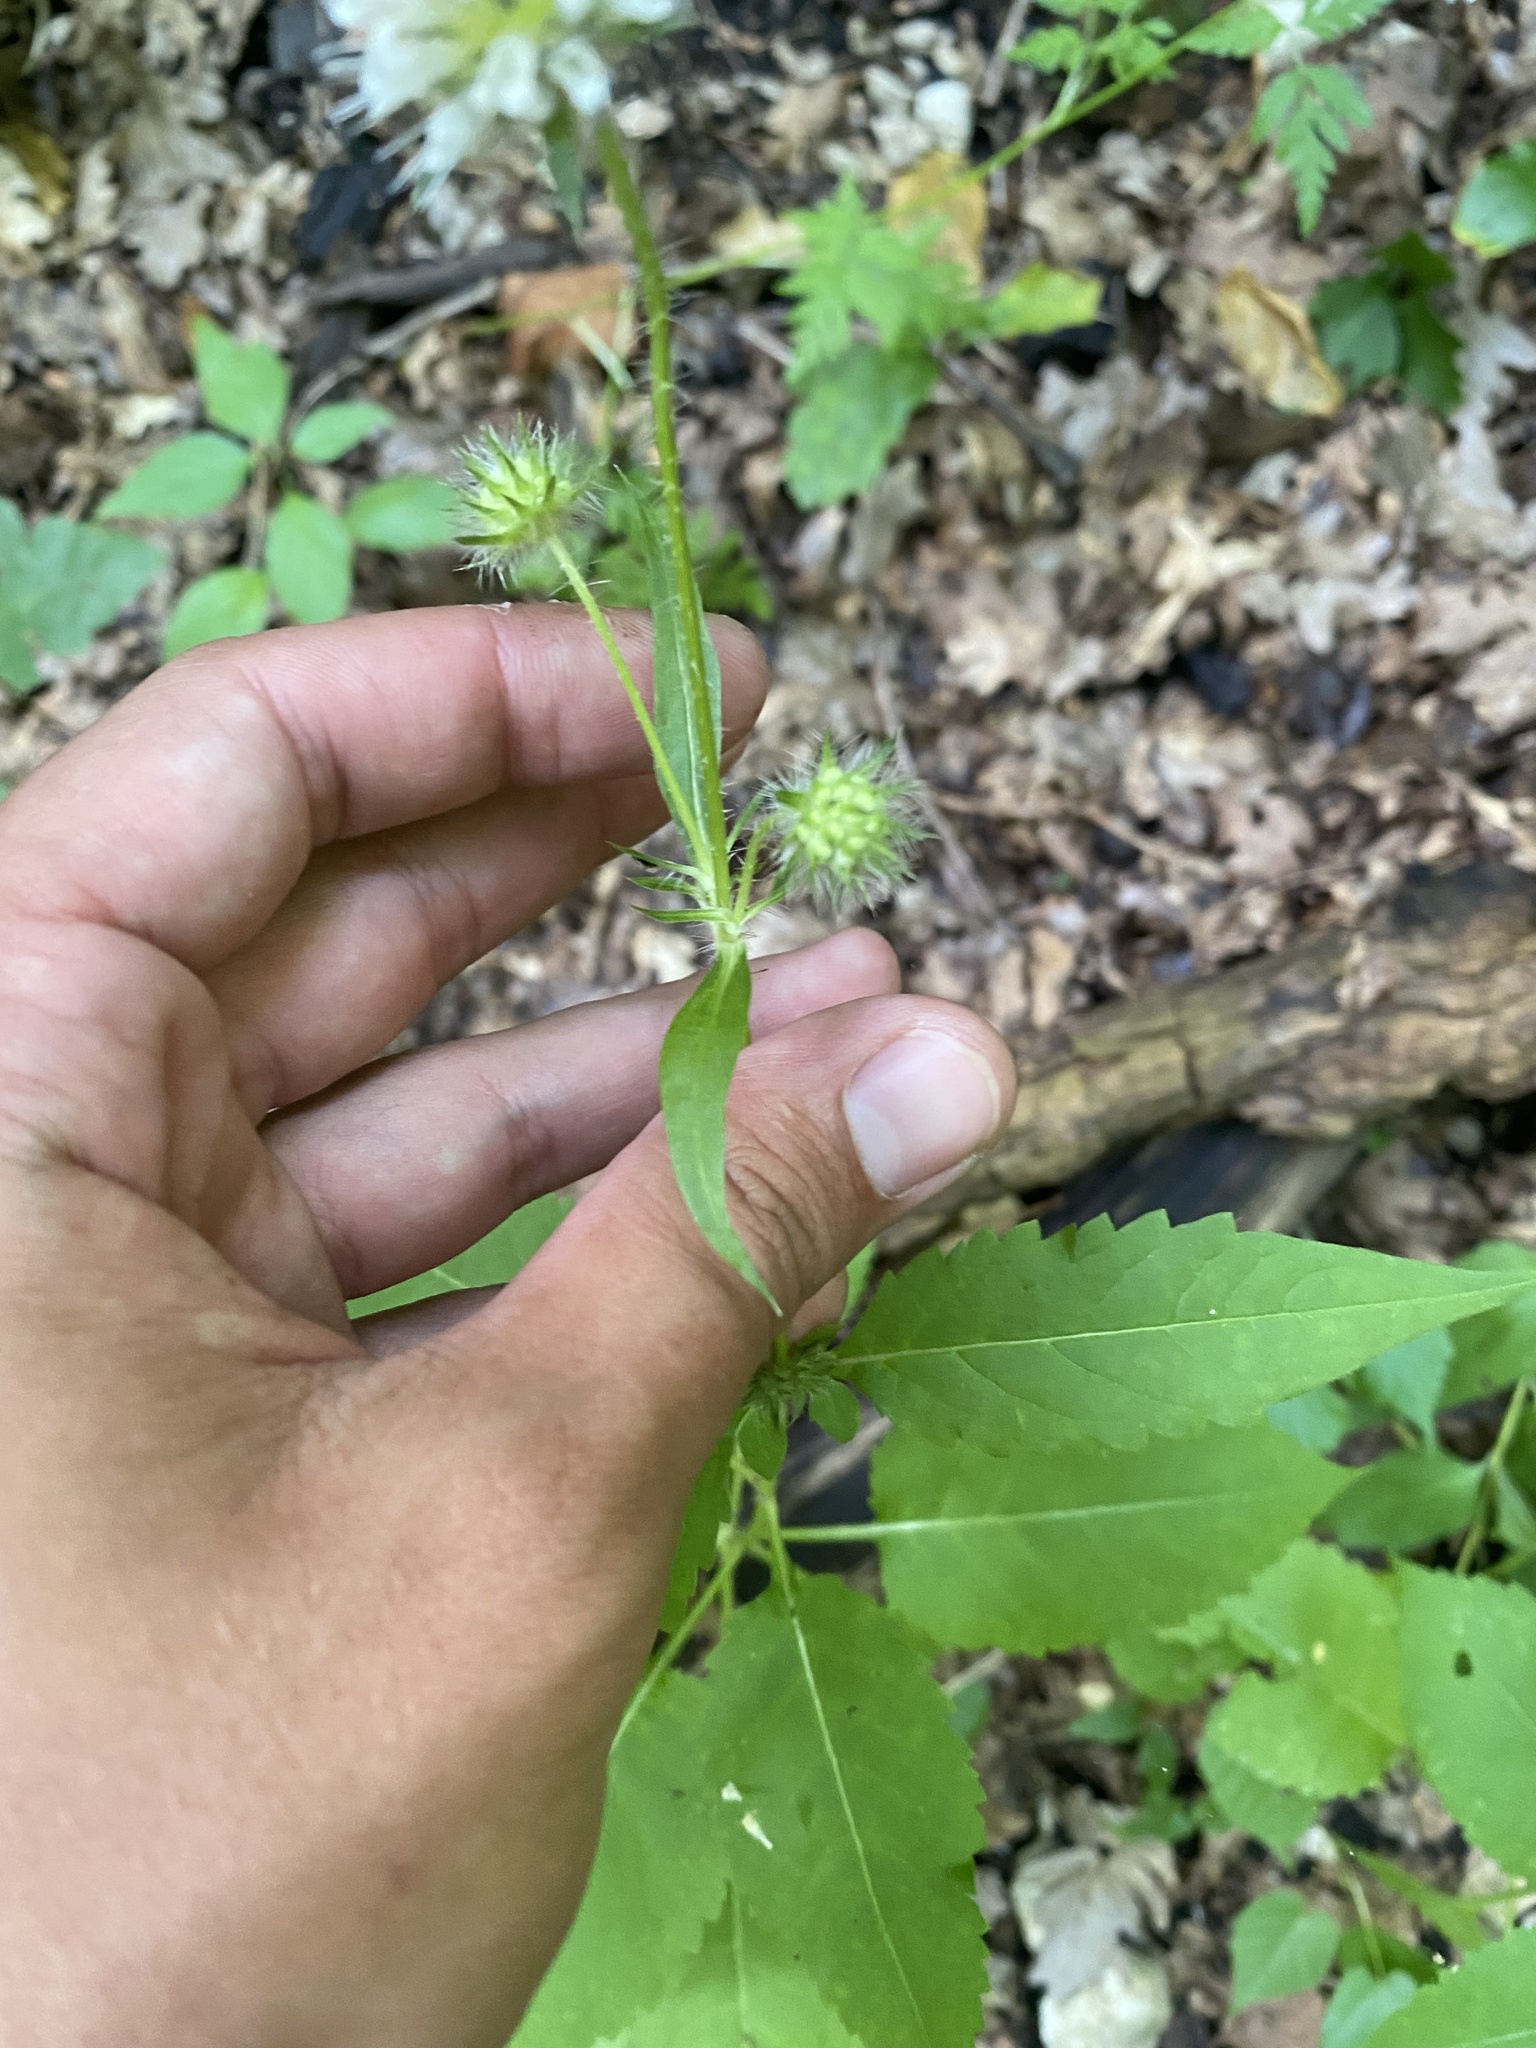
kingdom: Plantae
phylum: Tracheophyta
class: Magnoliopsida
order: Dipsacales
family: Caprifoliaceae
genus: Dipsacus
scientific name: Dipsacus pilosus
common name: Small teasel
